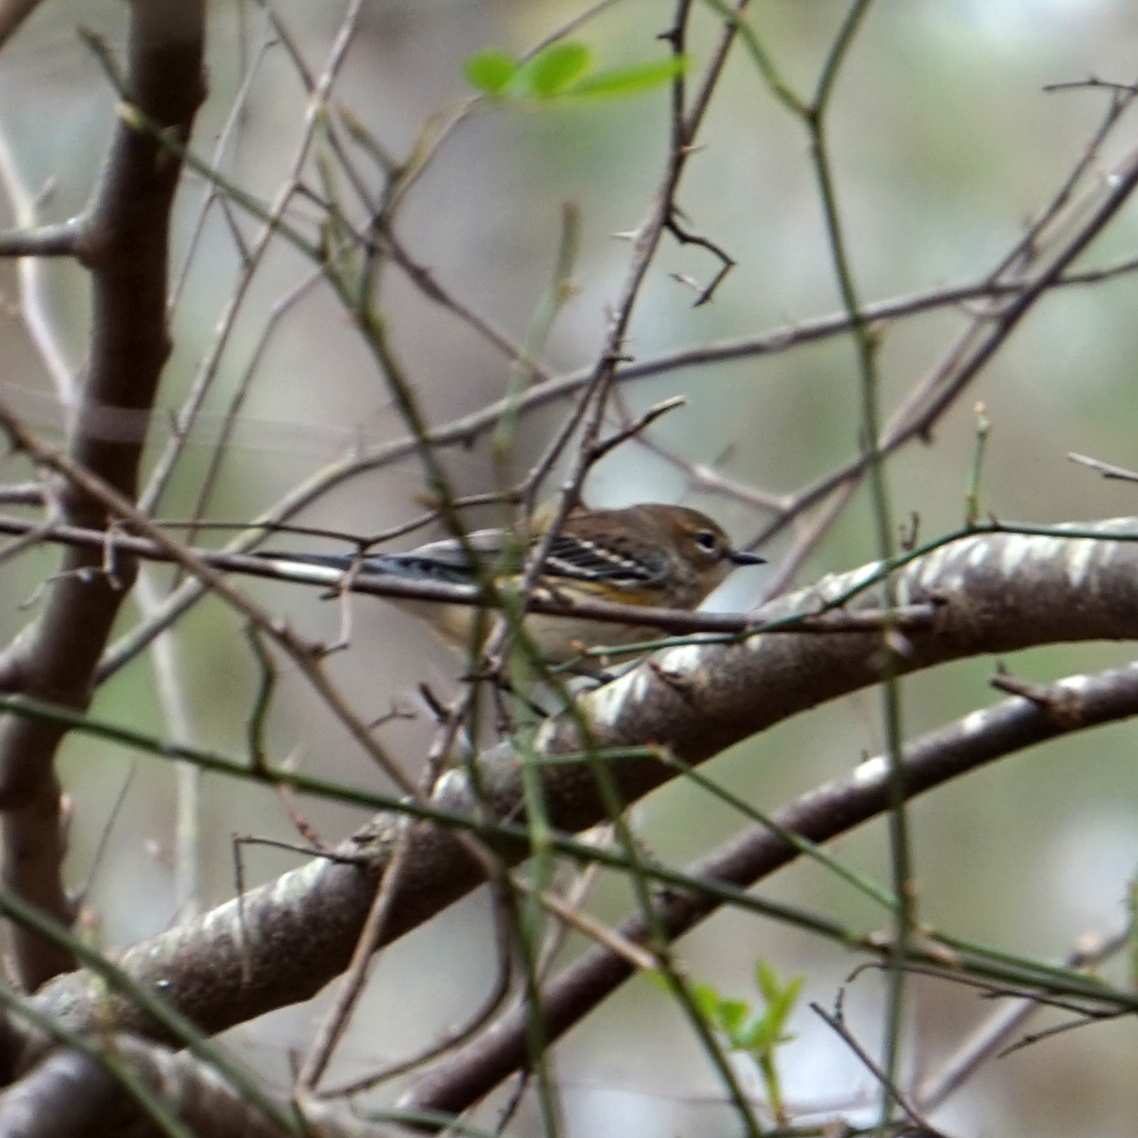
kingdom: Animalia
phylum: Chordata
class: Aves
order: Passeriformes
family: Parulidae
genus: Setophaga
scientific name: Setophaga coronata
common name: Myrtle warbler
